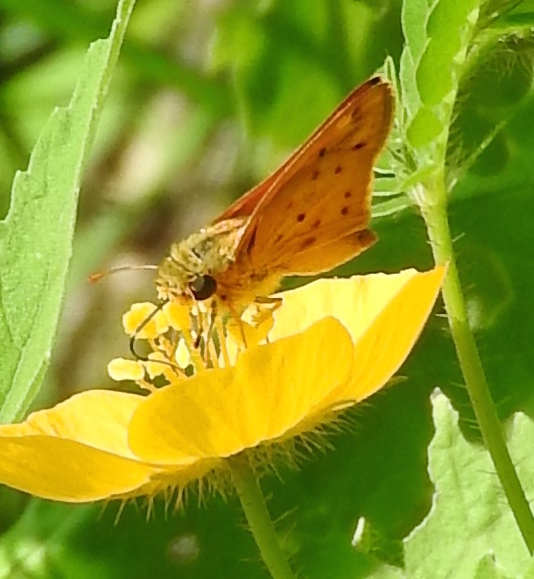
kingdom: Animalia
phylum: Arthropoda
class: Insecta
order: Lepidoptera
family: Hesperiidae
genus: Hylephila
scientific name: Hylephila phyleus
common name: Fiery skipper
